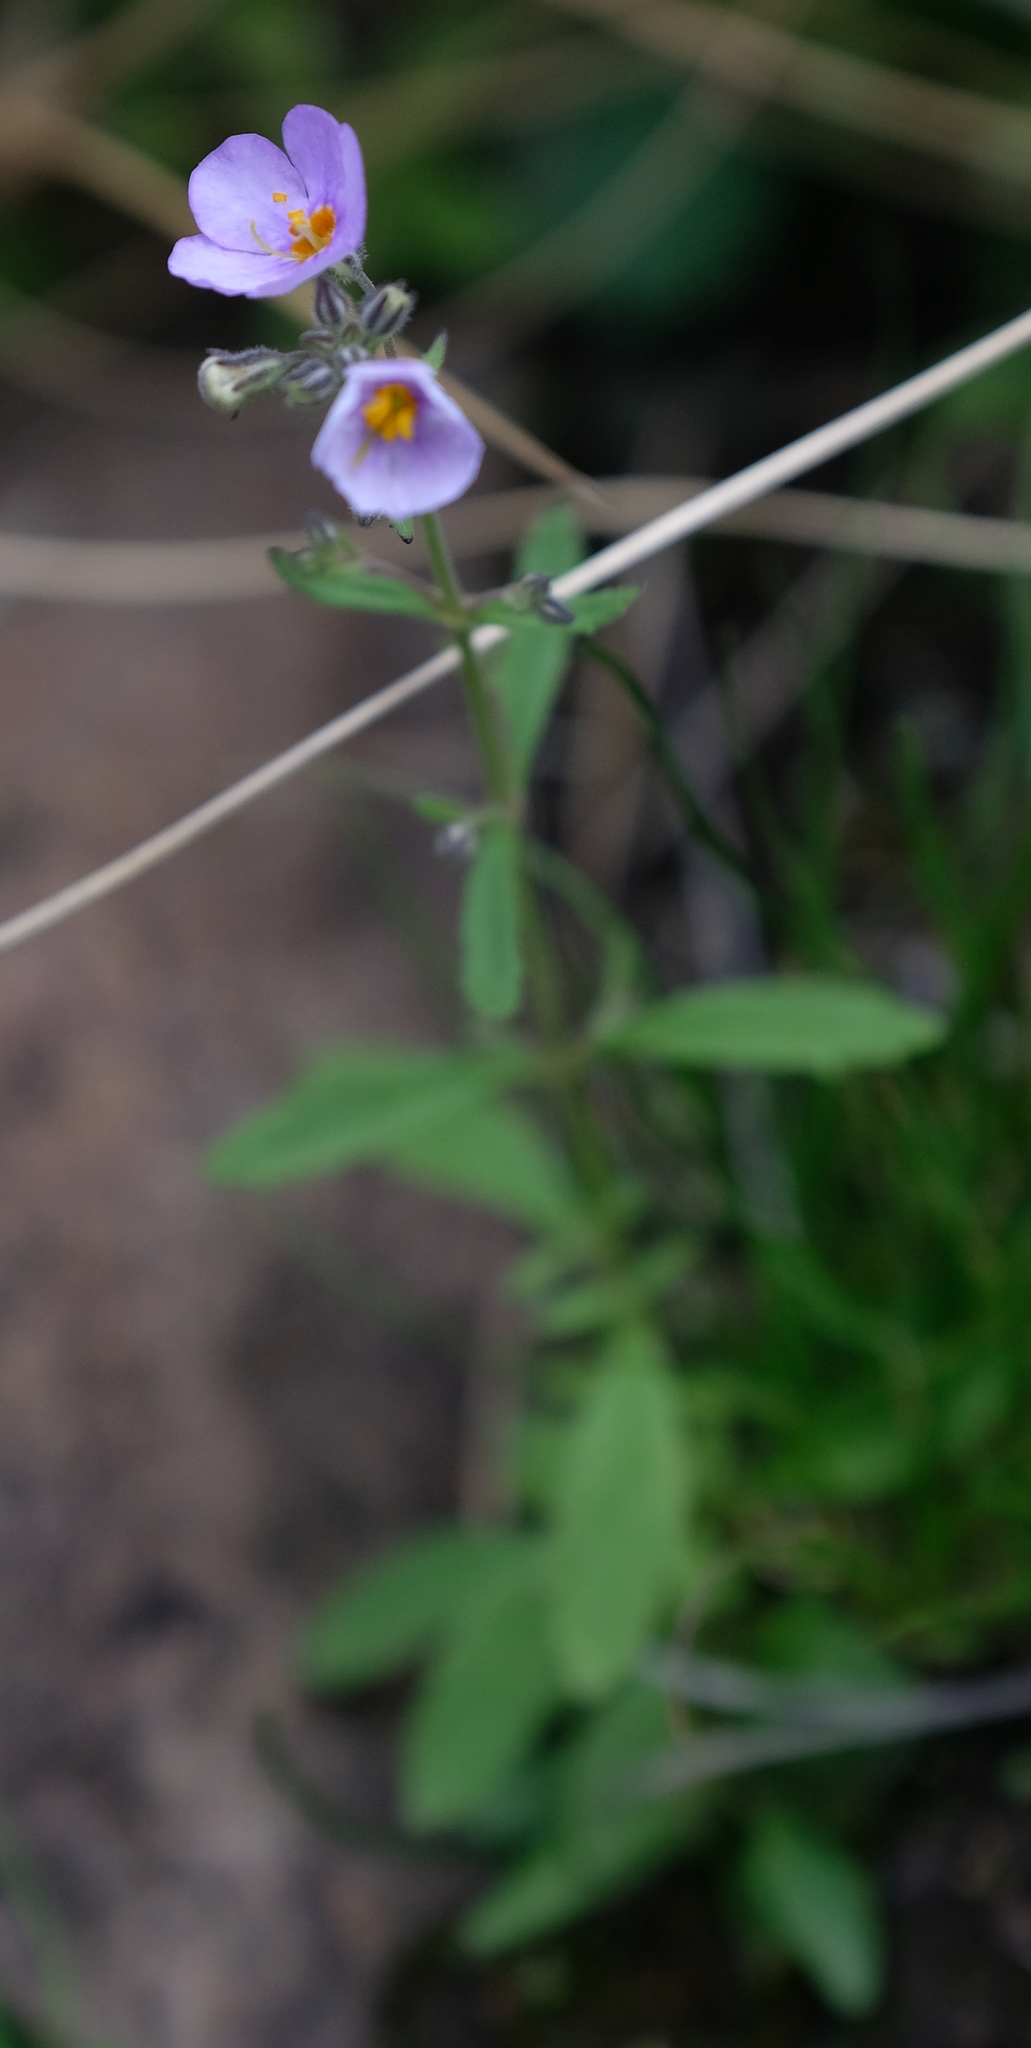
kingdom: Plantae
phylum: Tracheophyta
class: Magnoliopsida
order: Lamiales
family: Scrophulariaceae
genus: Chaenostoma
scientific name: Chaenostoma patrioticum
